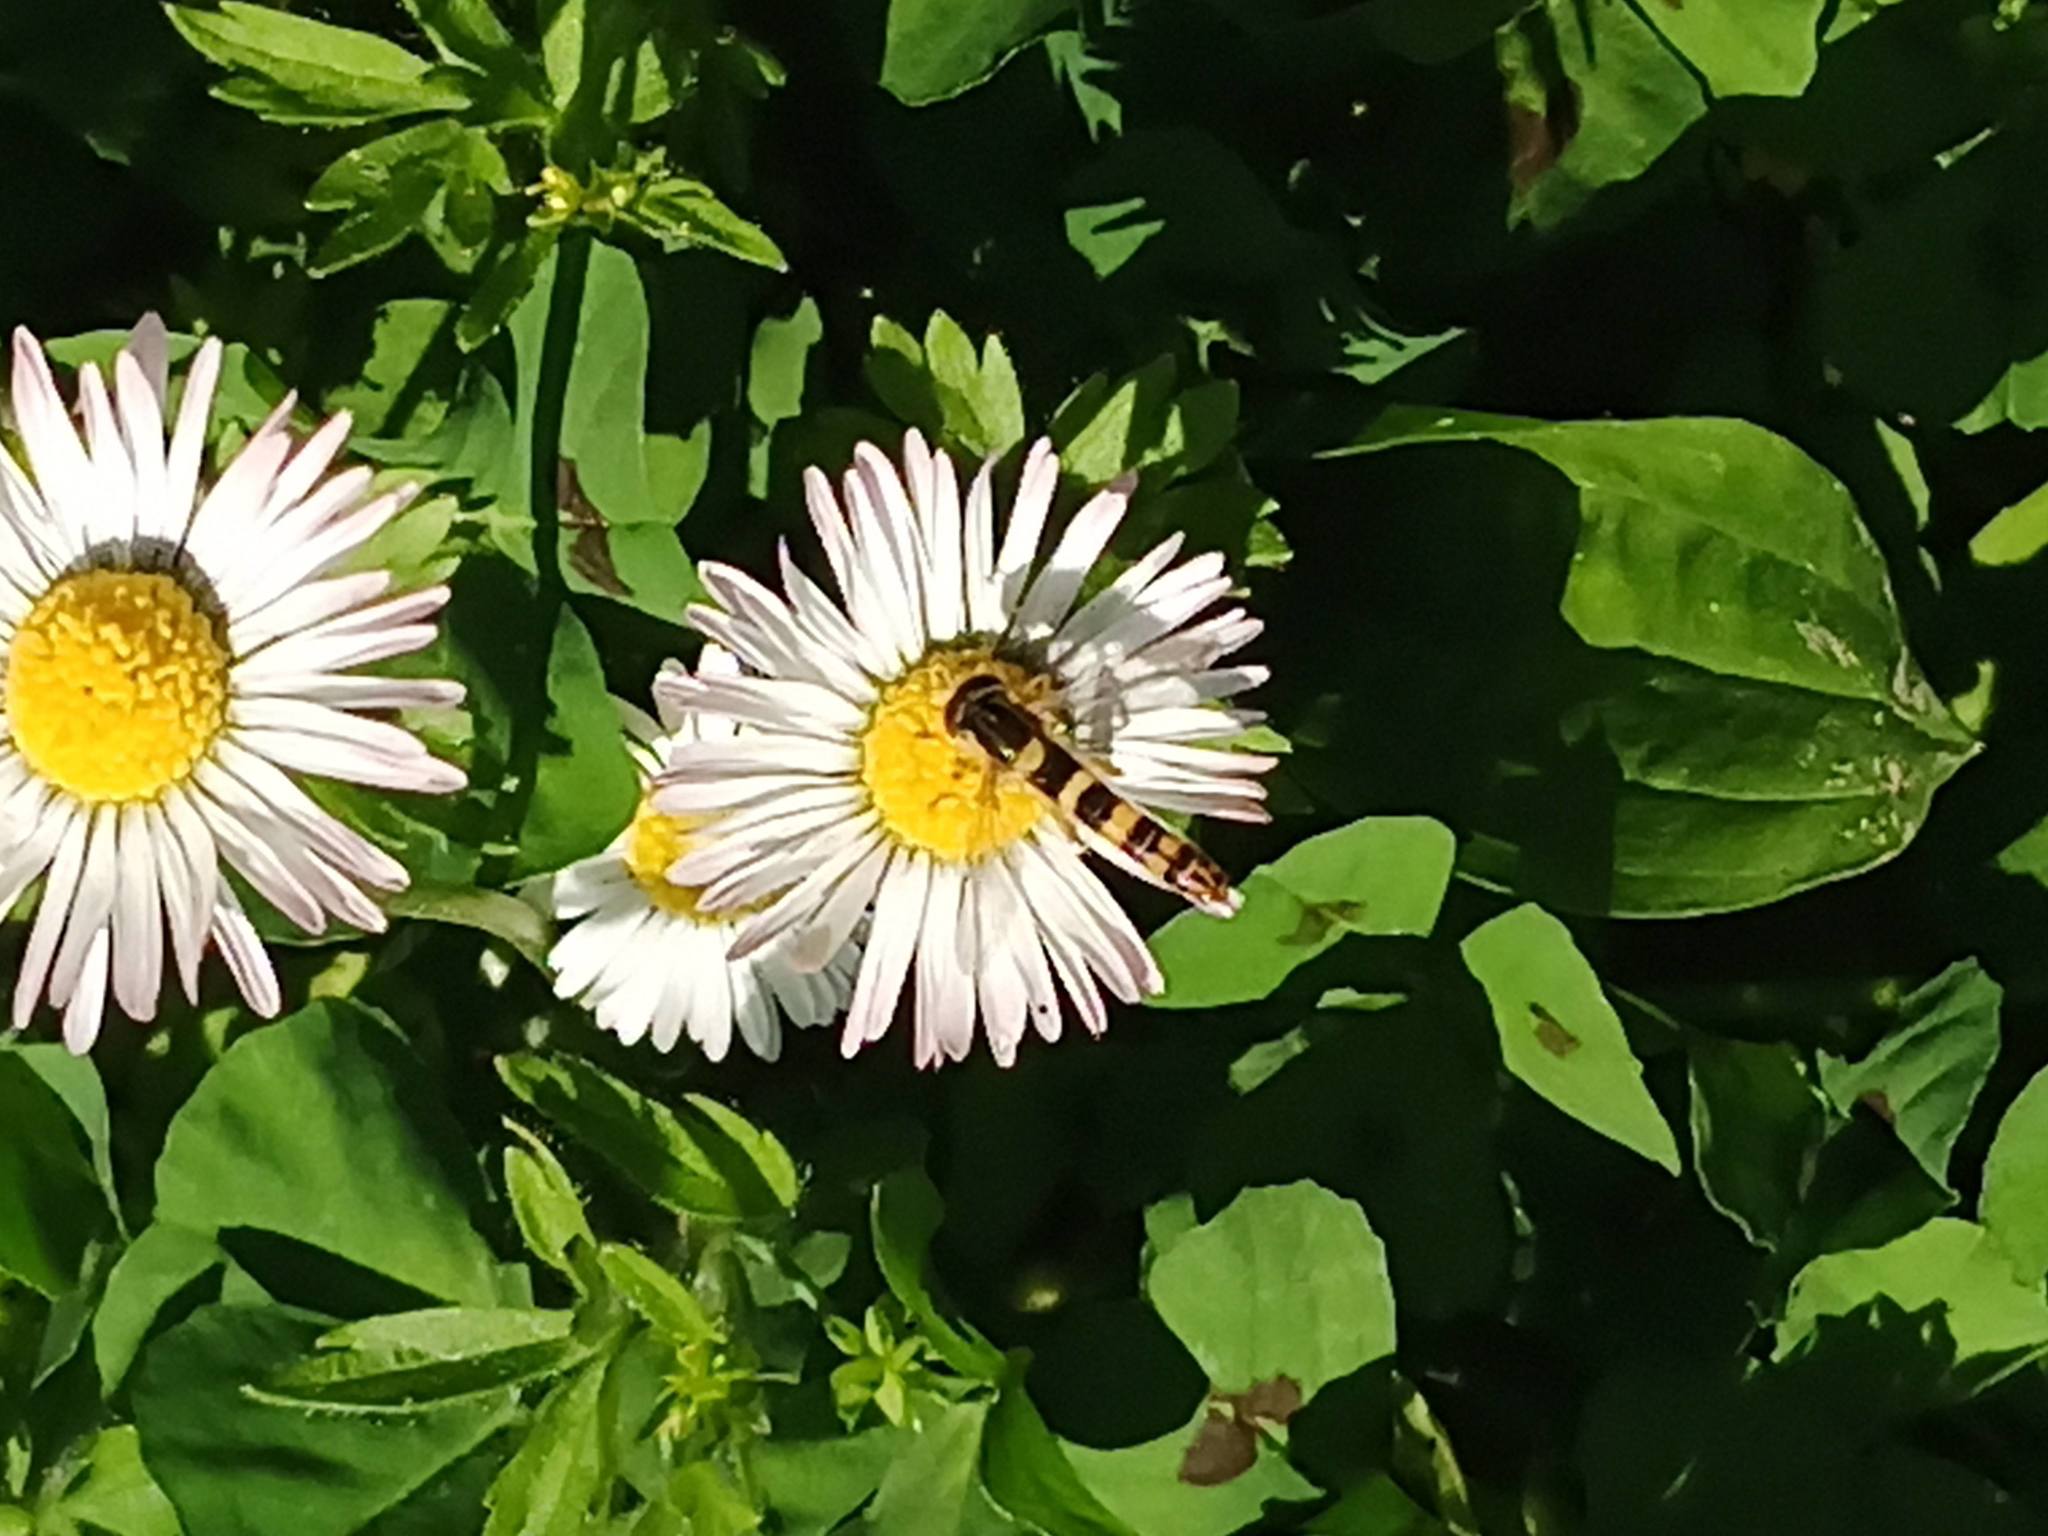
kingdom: Animalia
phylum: Arthropoda
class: Insecta
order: Diptera
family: Syrphidae
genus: Sphaerophoria
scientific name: Sphaerophoria scripta
